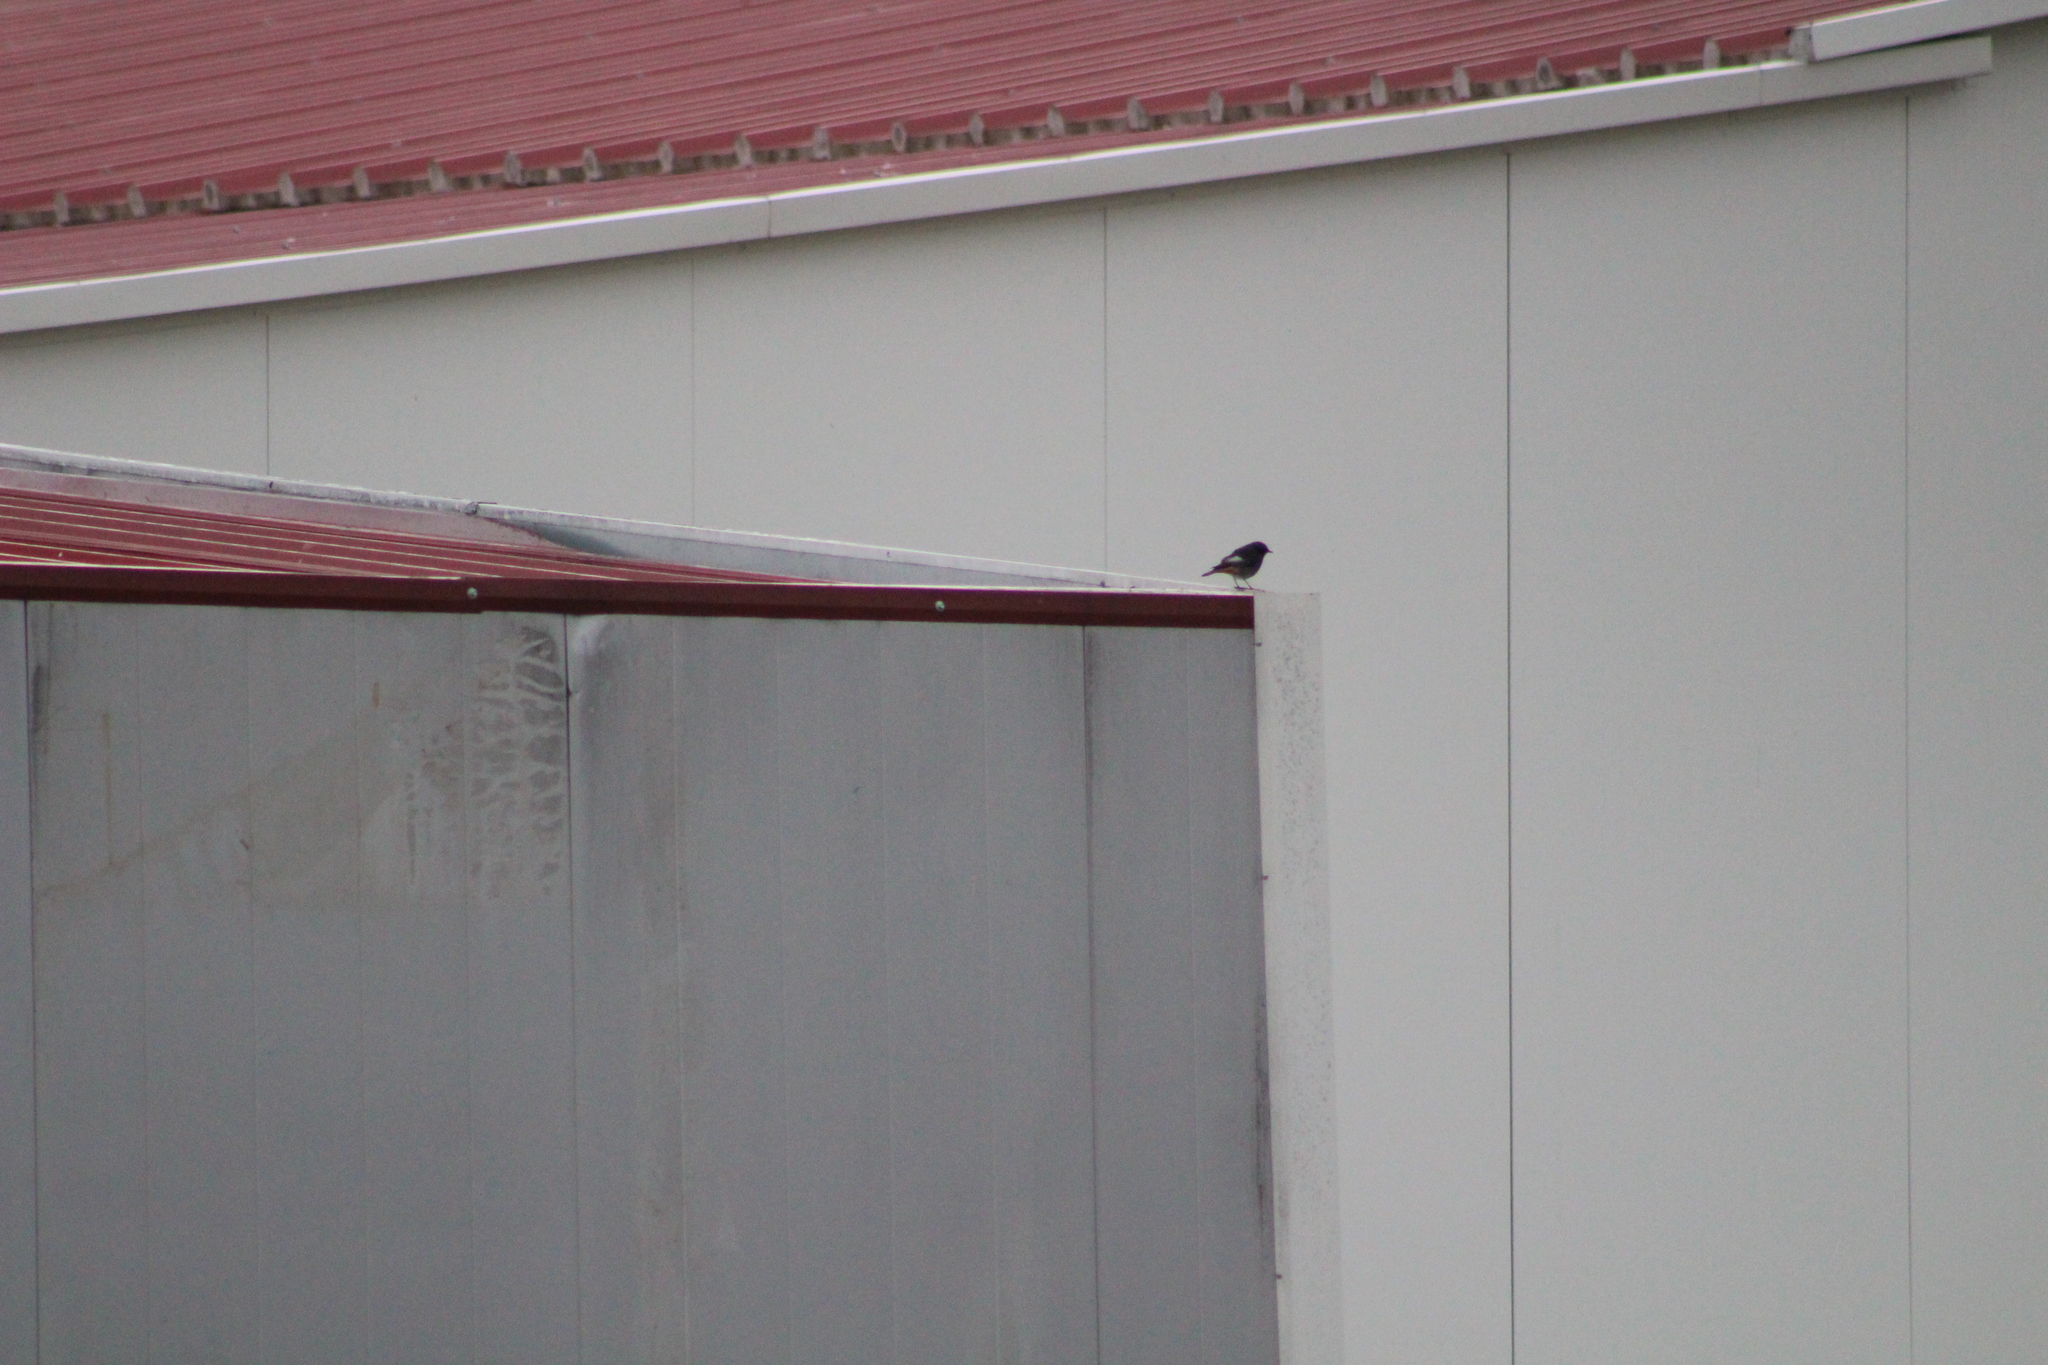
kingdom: Animalia
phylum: Chordata
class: Aves
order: Passeriformes
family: Muscicapidae
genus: Phoenicurus
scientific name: Phoenicurus ochruros
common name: Black redstart
